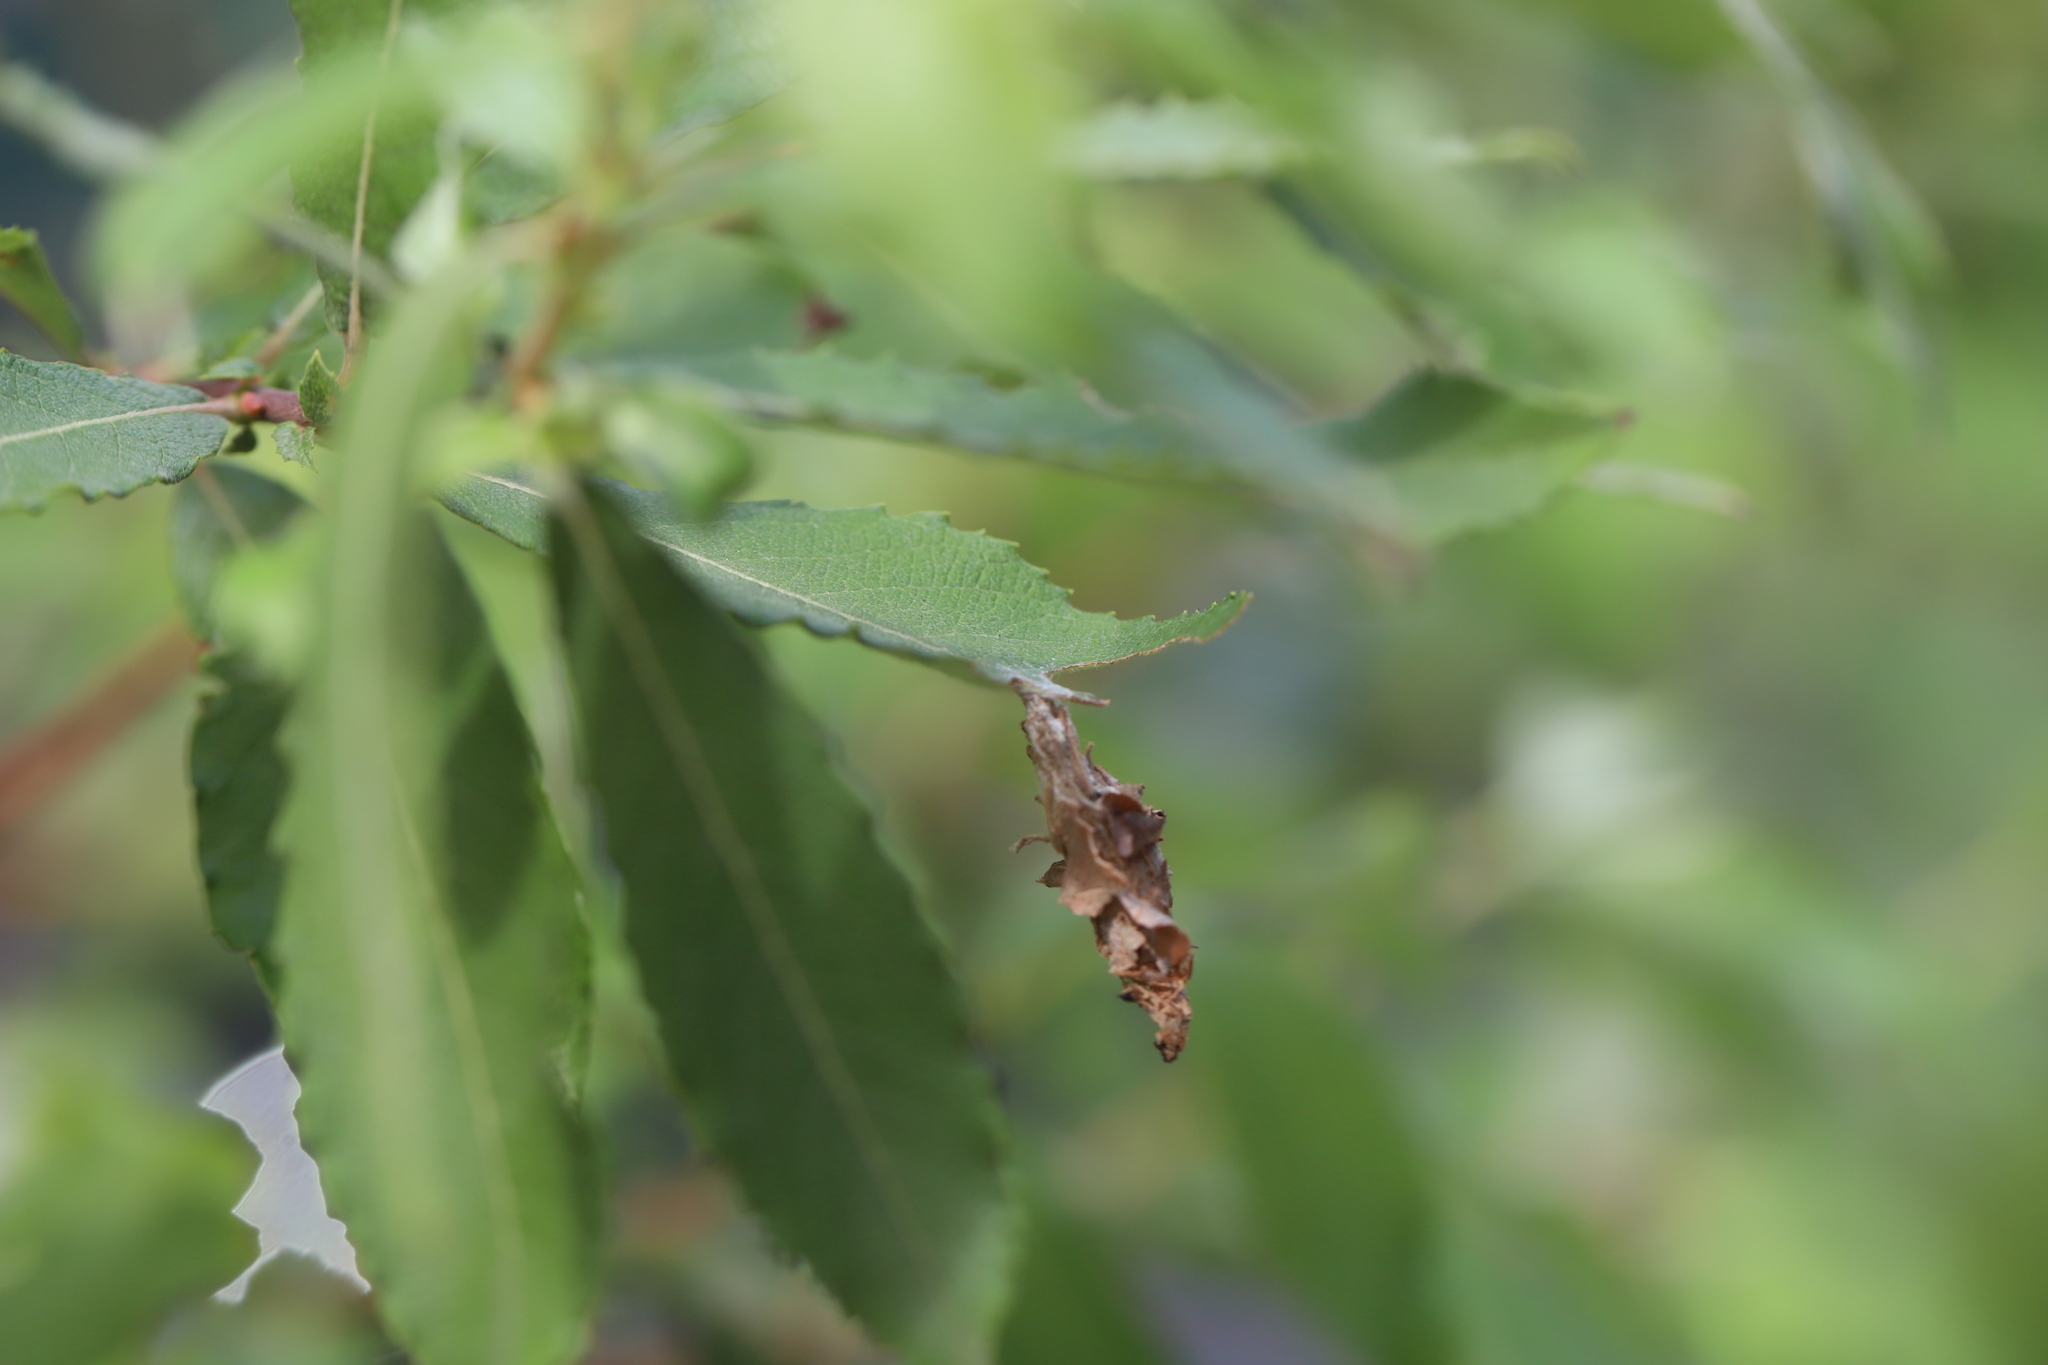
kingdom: Animalia
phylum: Arthropoda
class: Insecta
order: Lepidoptera
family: Psychidae
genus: Psyche
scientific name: Psyche casta
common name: Common sweep
